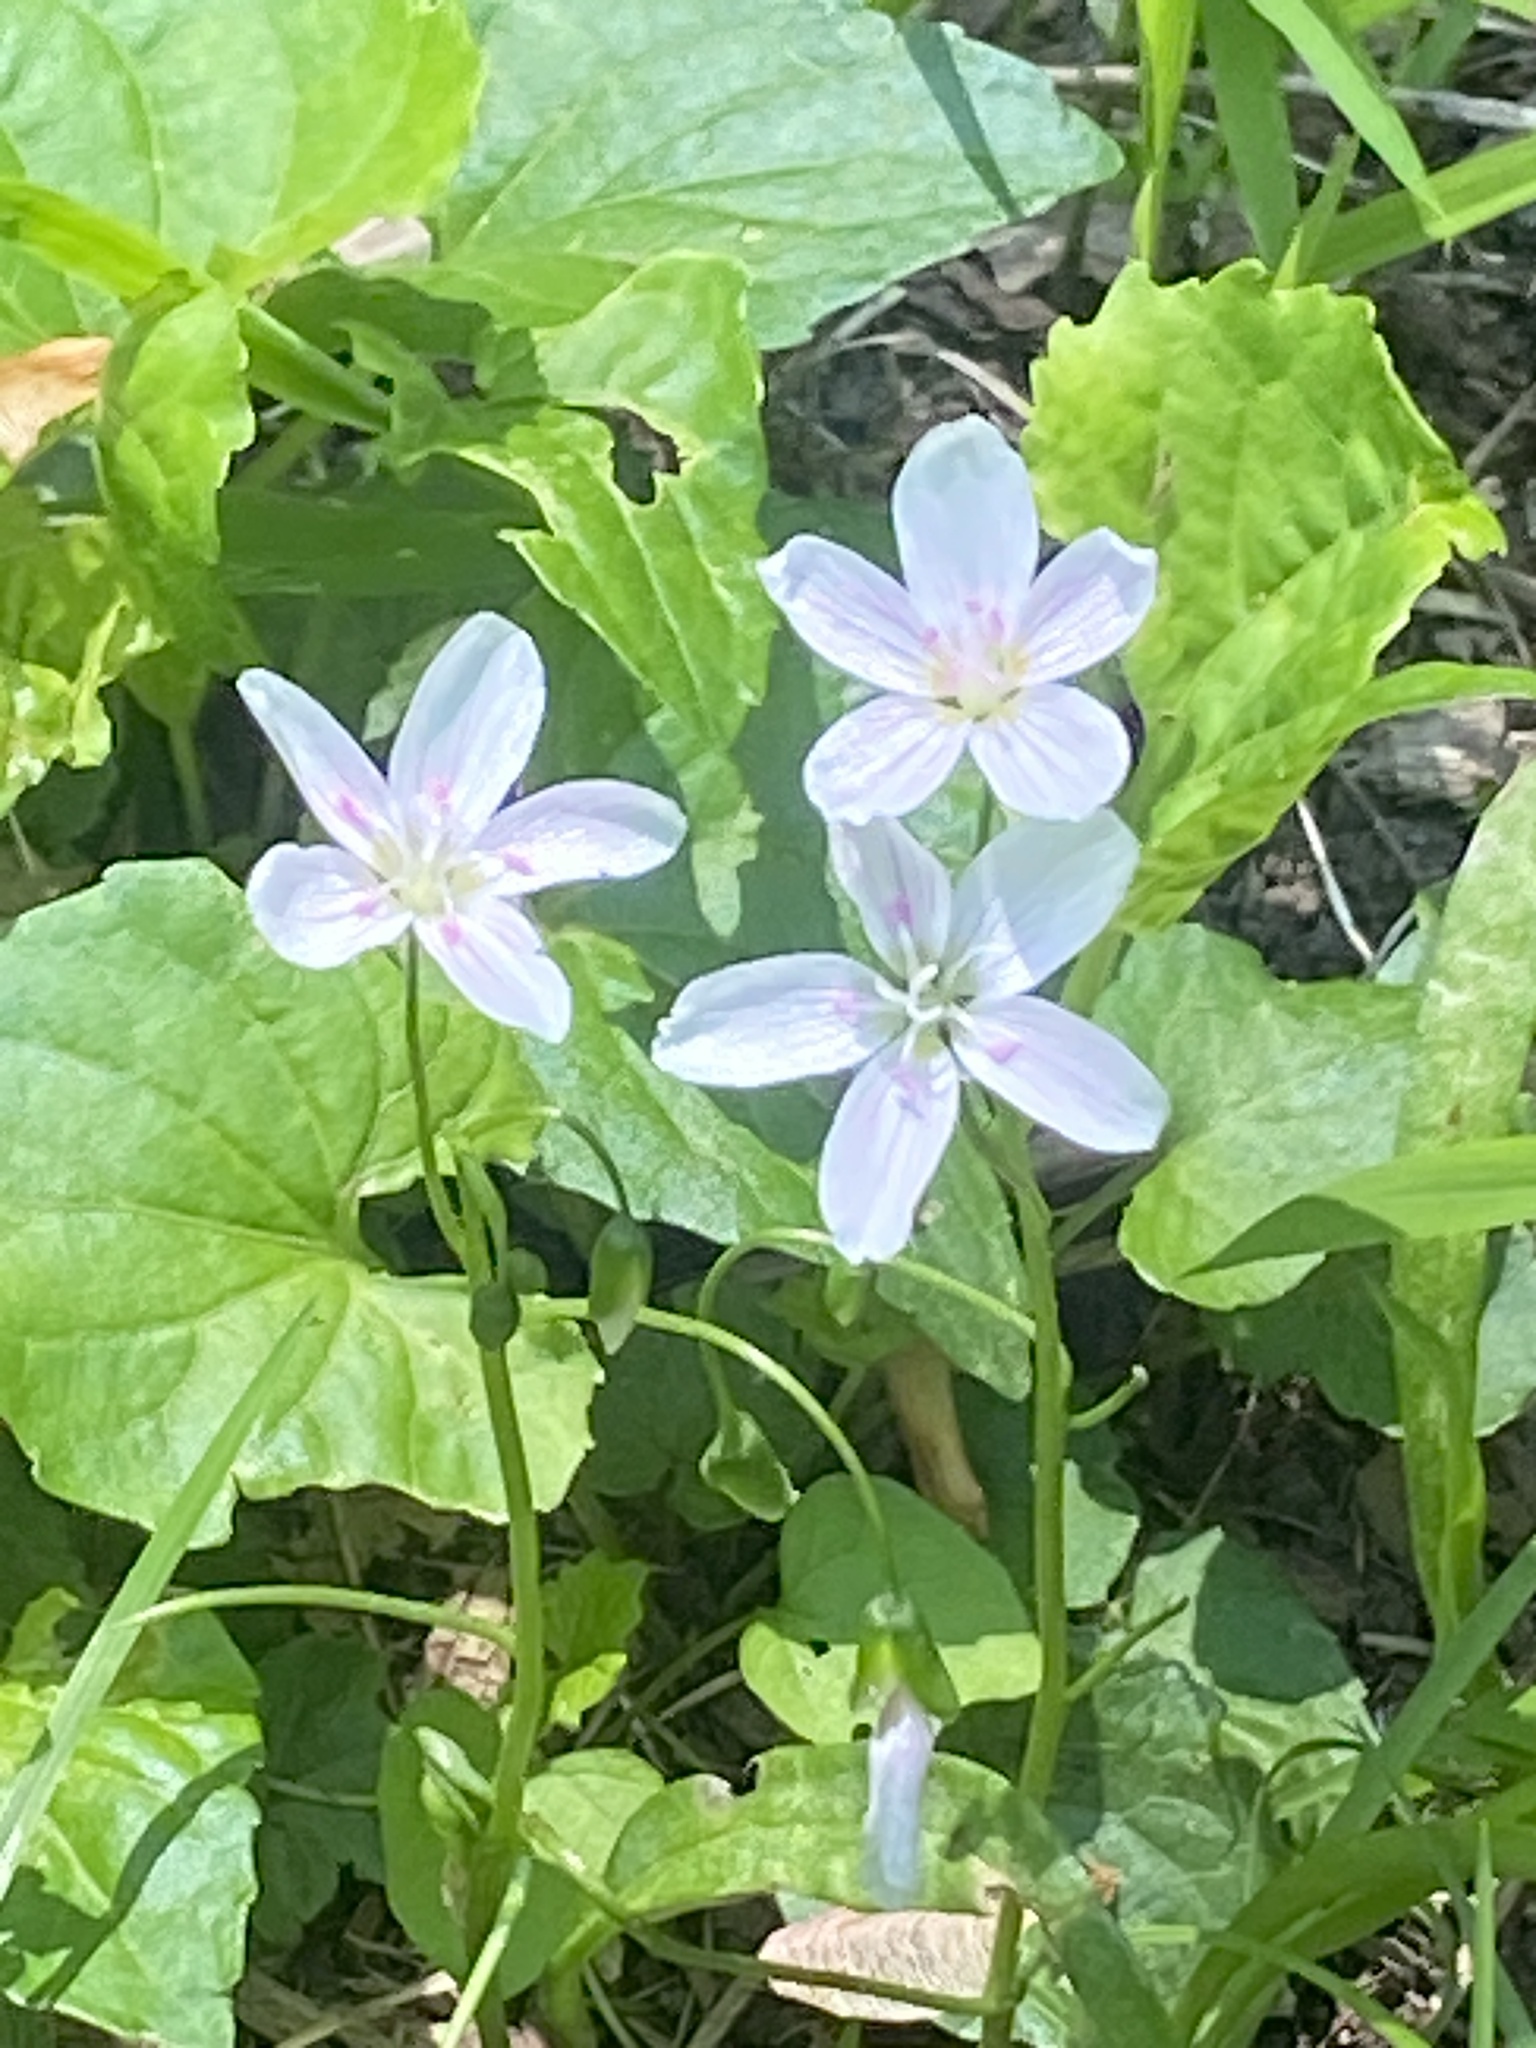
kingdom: Plantae
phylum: Tracheophyta
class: Magnoliopsida
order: Caryophyllales
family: Montiaceae
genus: Claytonia
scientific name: Claytonia virginica
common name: Virginia springbeauty
